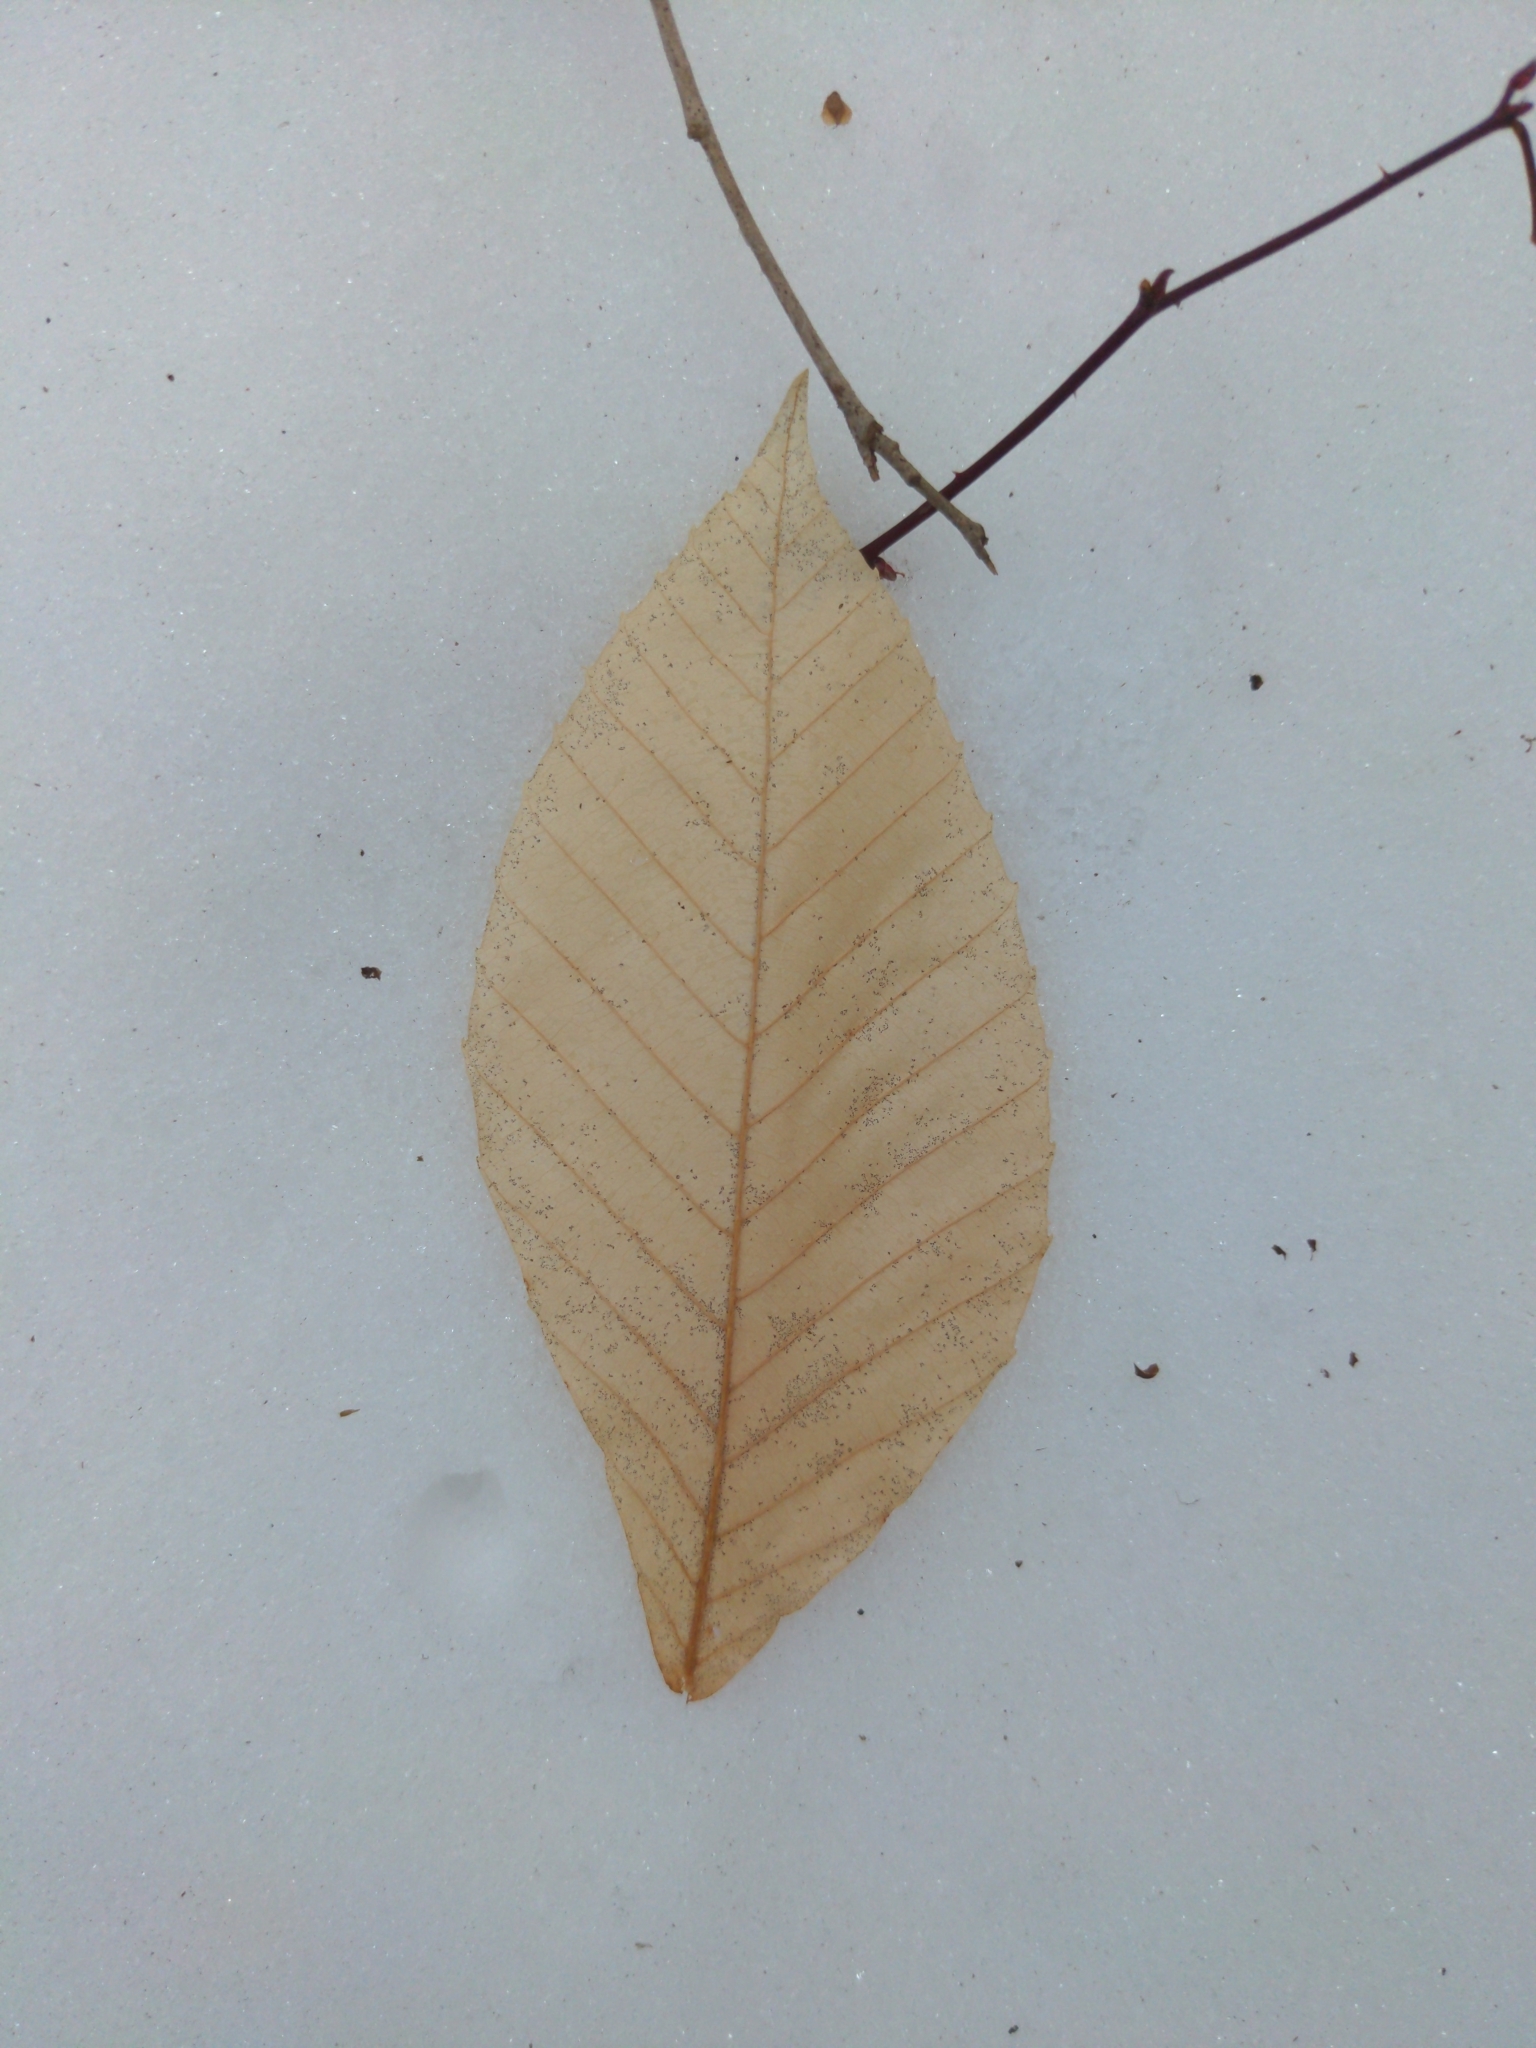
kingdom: Plantae
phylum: Tracheophyta
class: Magnoliopsida
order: Fagales
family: Fagaceae
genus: Fagus
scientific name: Fagus grandifolia
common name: American beech
